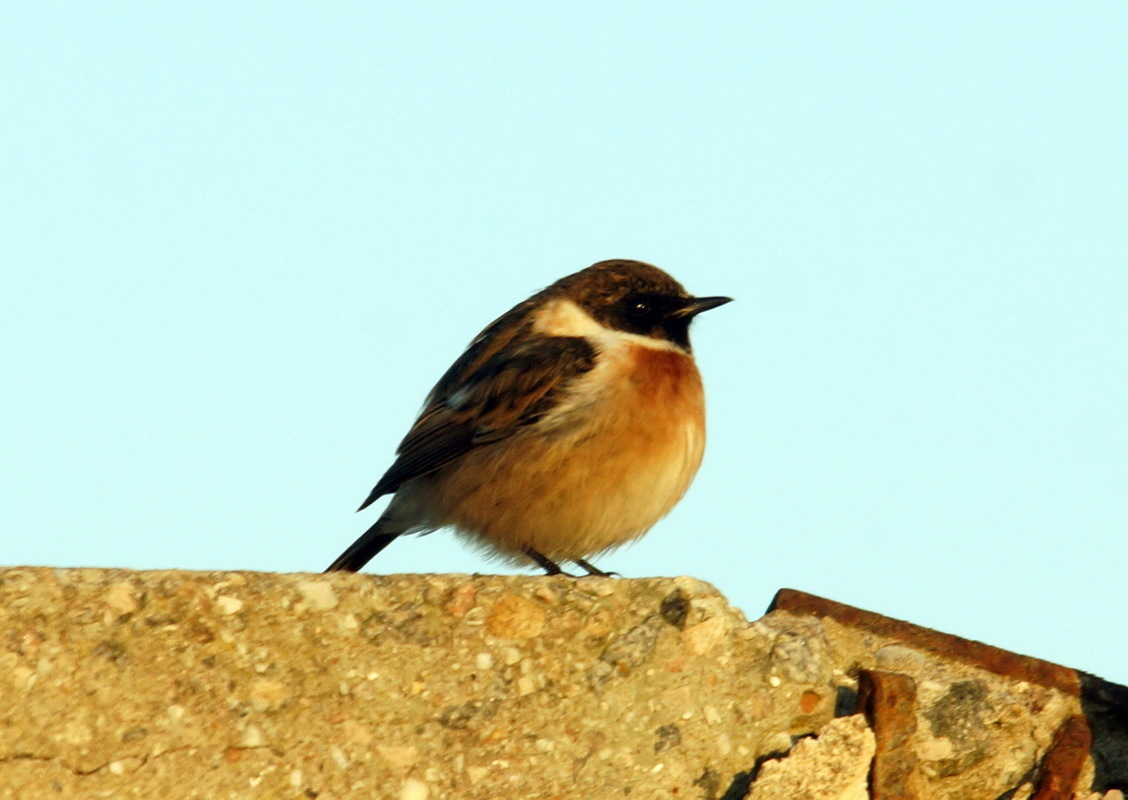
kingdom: Animalia
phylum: Chordata
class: Aves
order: Passeriformes
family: Muscicapidae
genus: Saxicola
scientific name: Saxicola rubicola
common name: European stonechat
